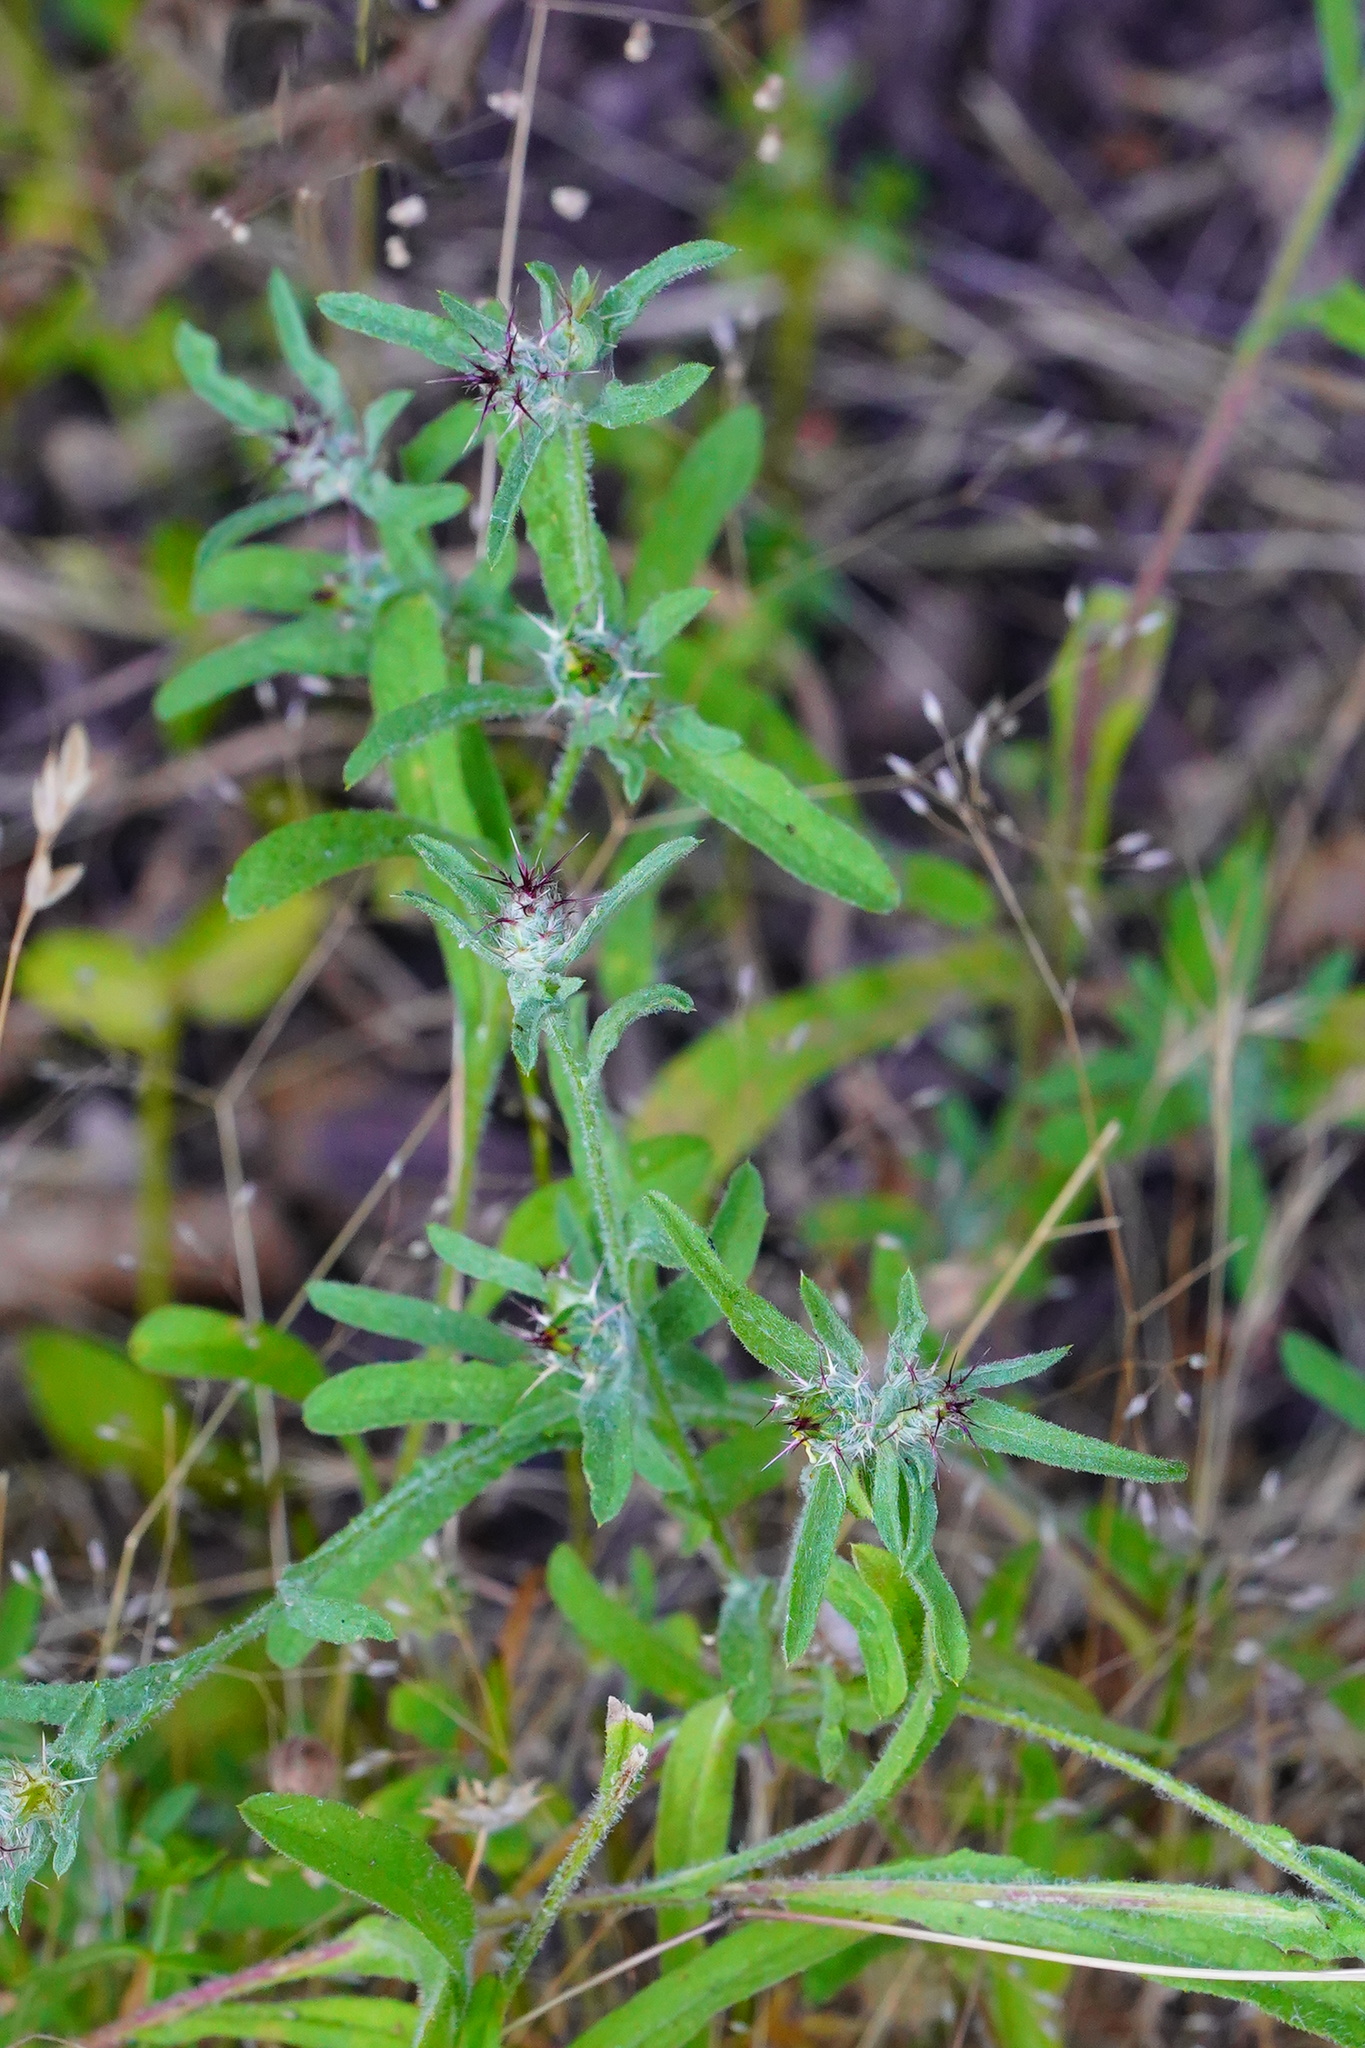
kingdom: Plantae
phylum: Tracheophyta
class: Magnoliopsida
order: Asterales
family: Asteraceae
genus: Centaurea
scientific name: Centaurea melitensis
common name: Maltese star-thistle
